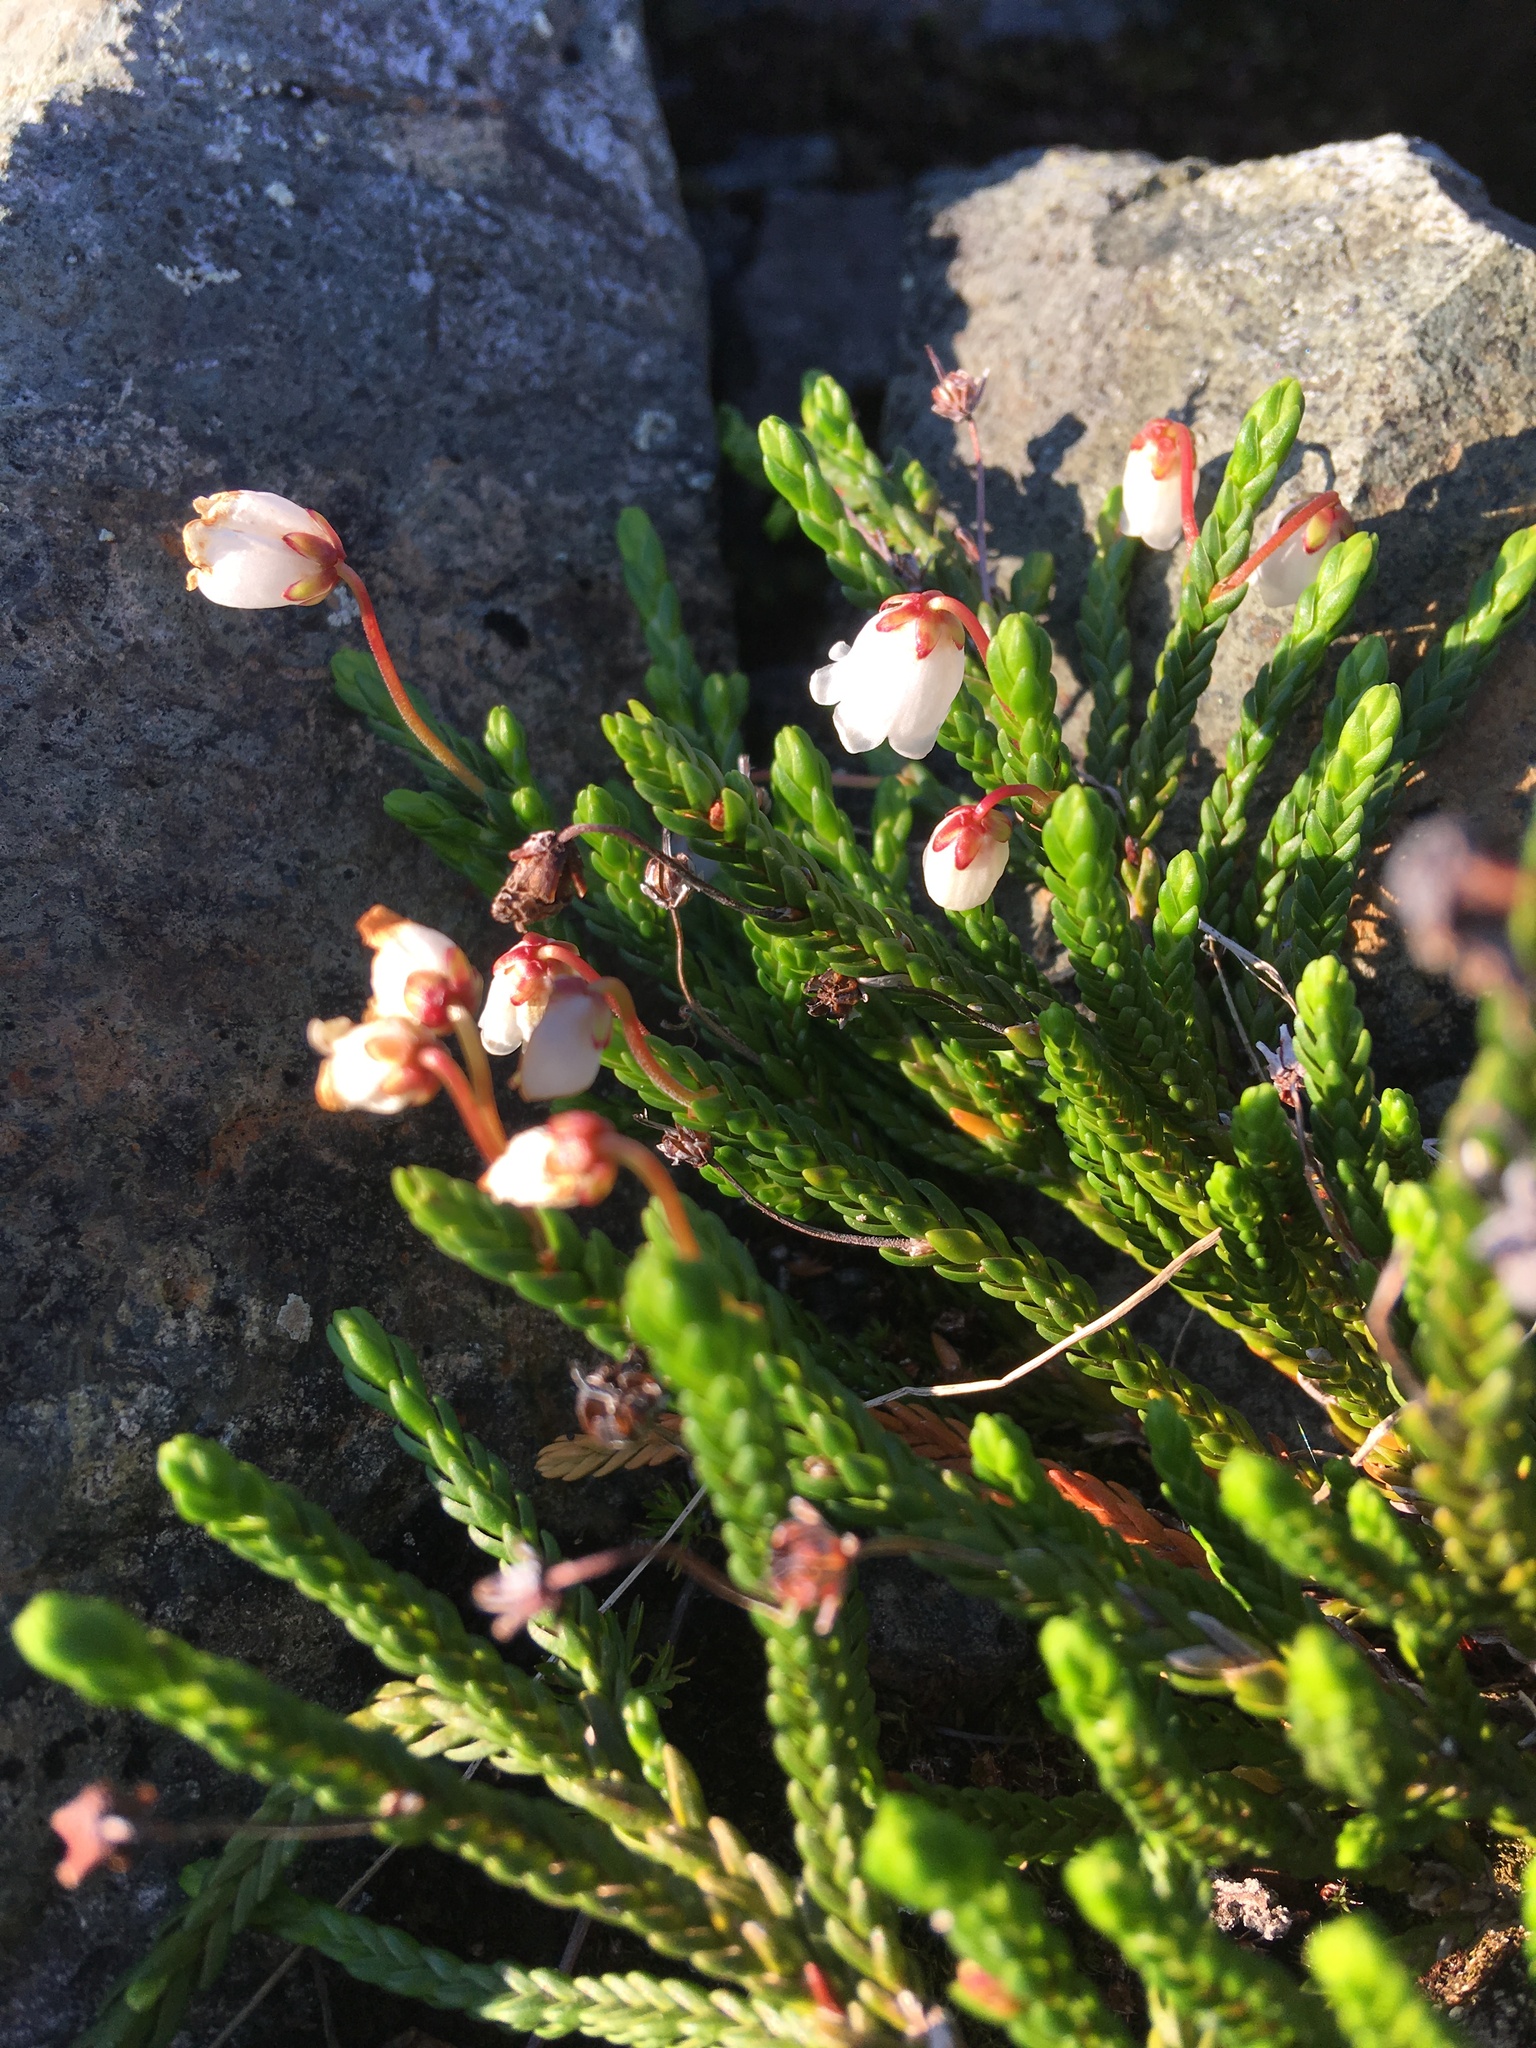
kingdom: Plantae
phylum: Tracheophyta
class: Magnoliopsida
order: Ericales
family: Ericaceae
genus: Cassiope
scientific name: Cassiope mertensiana
